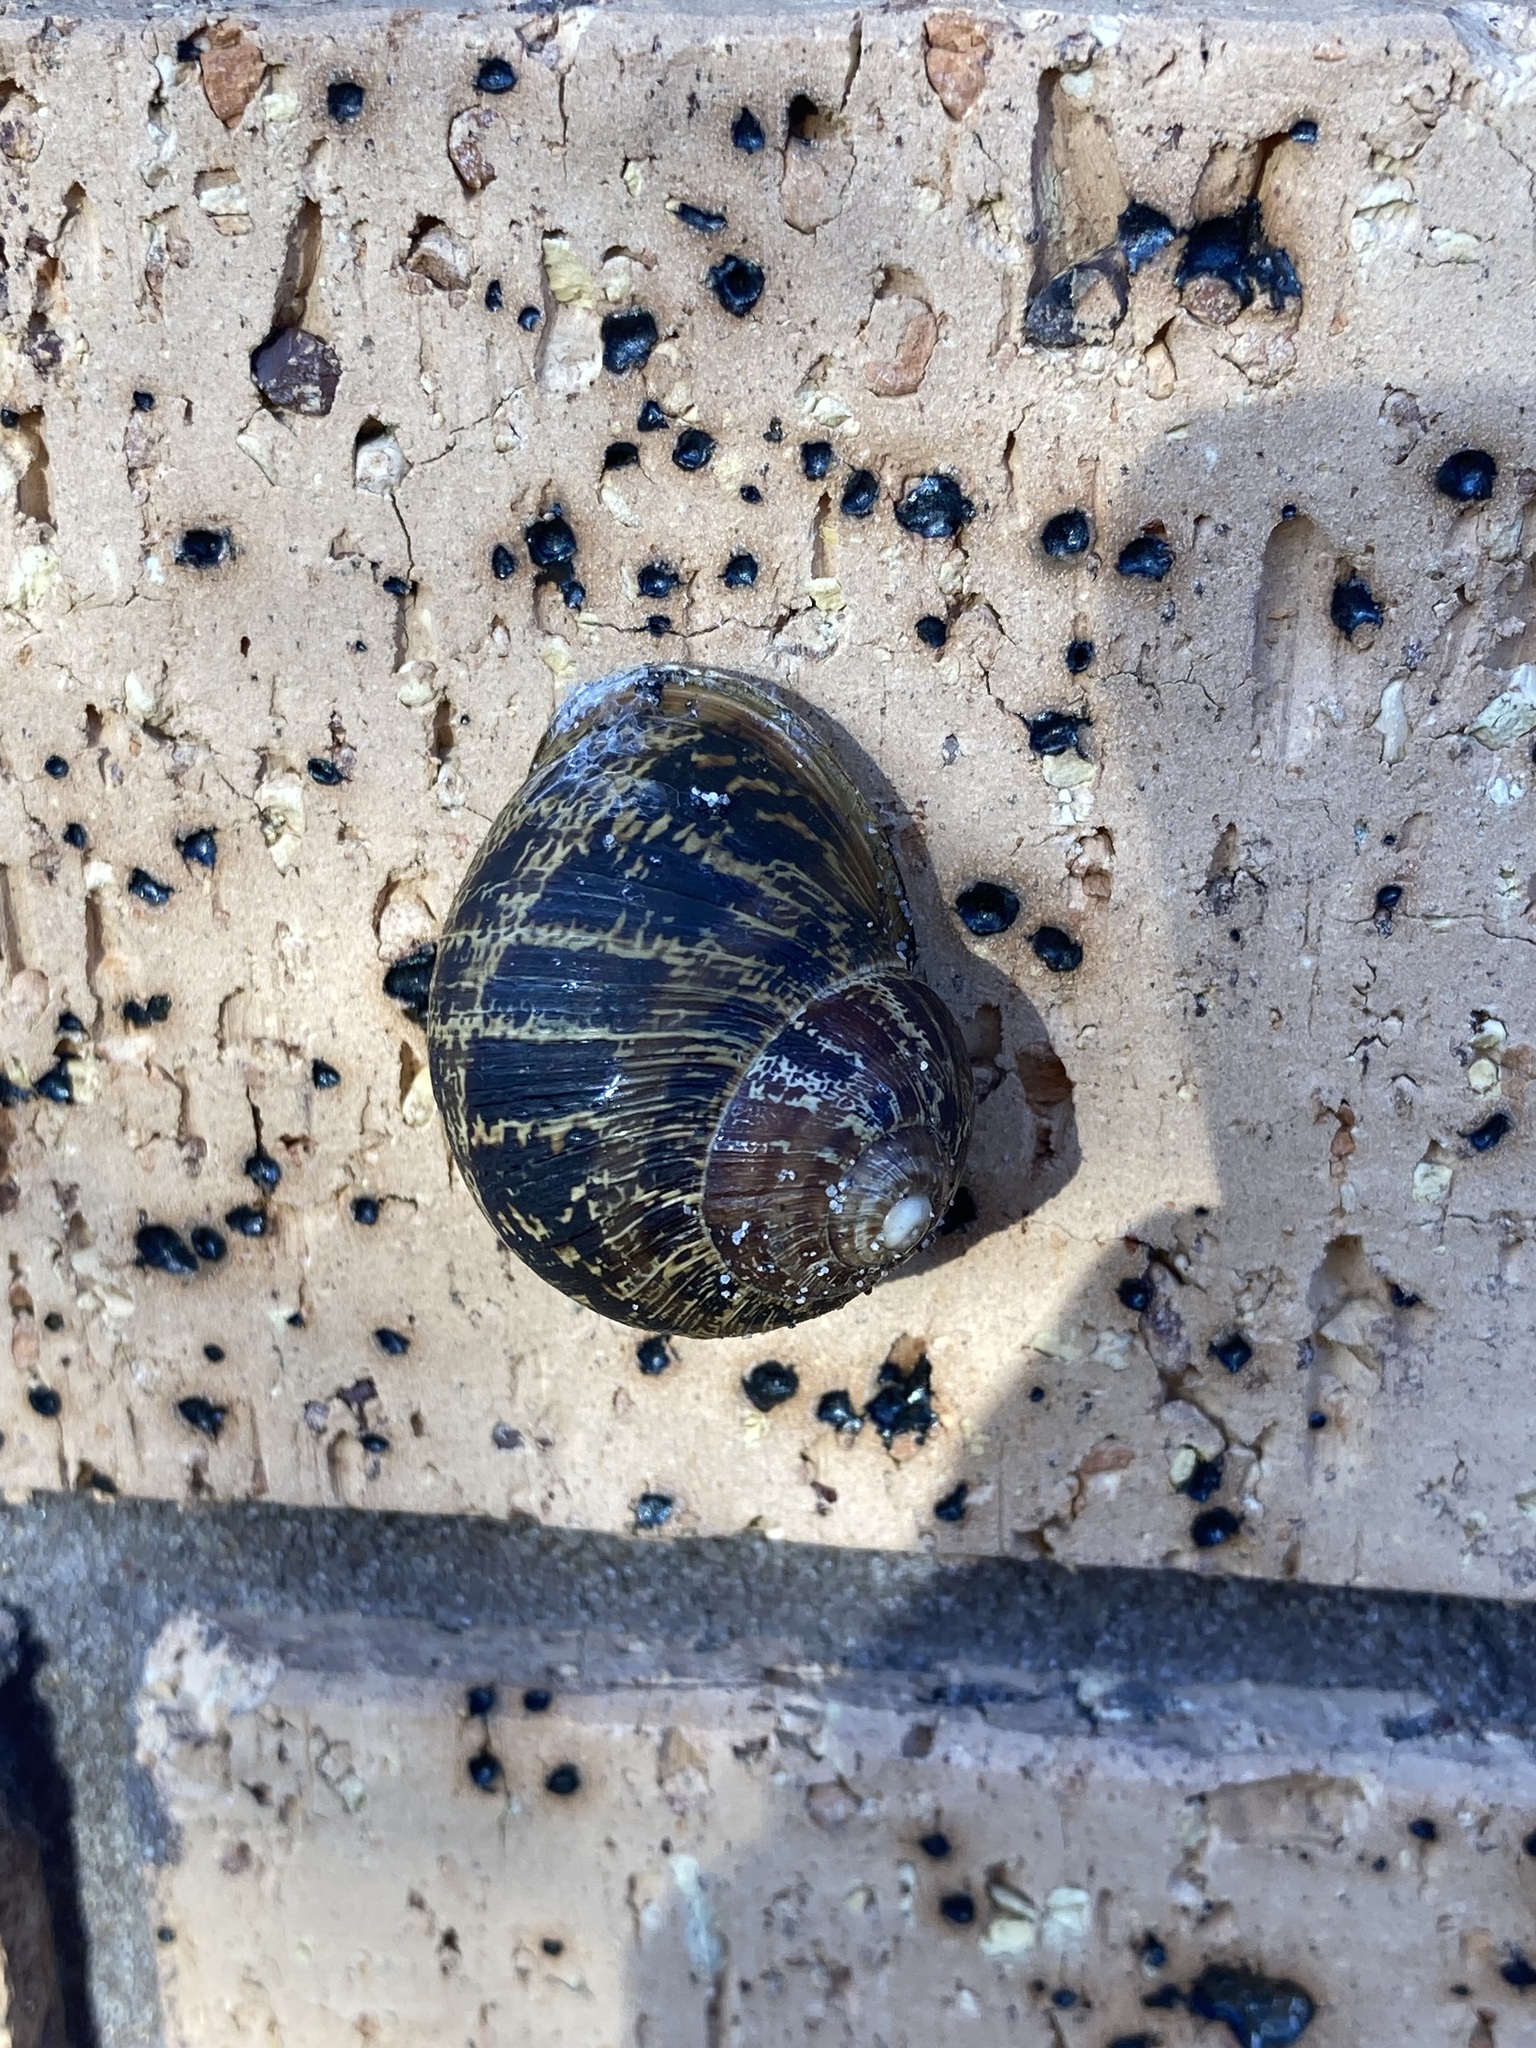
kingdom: Animalia
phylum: Mollusca
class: Gastropoda
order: Stylommatophora
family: Helicidae
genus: Cornu
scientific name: Cornu aspersum
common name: Brown garden snail
